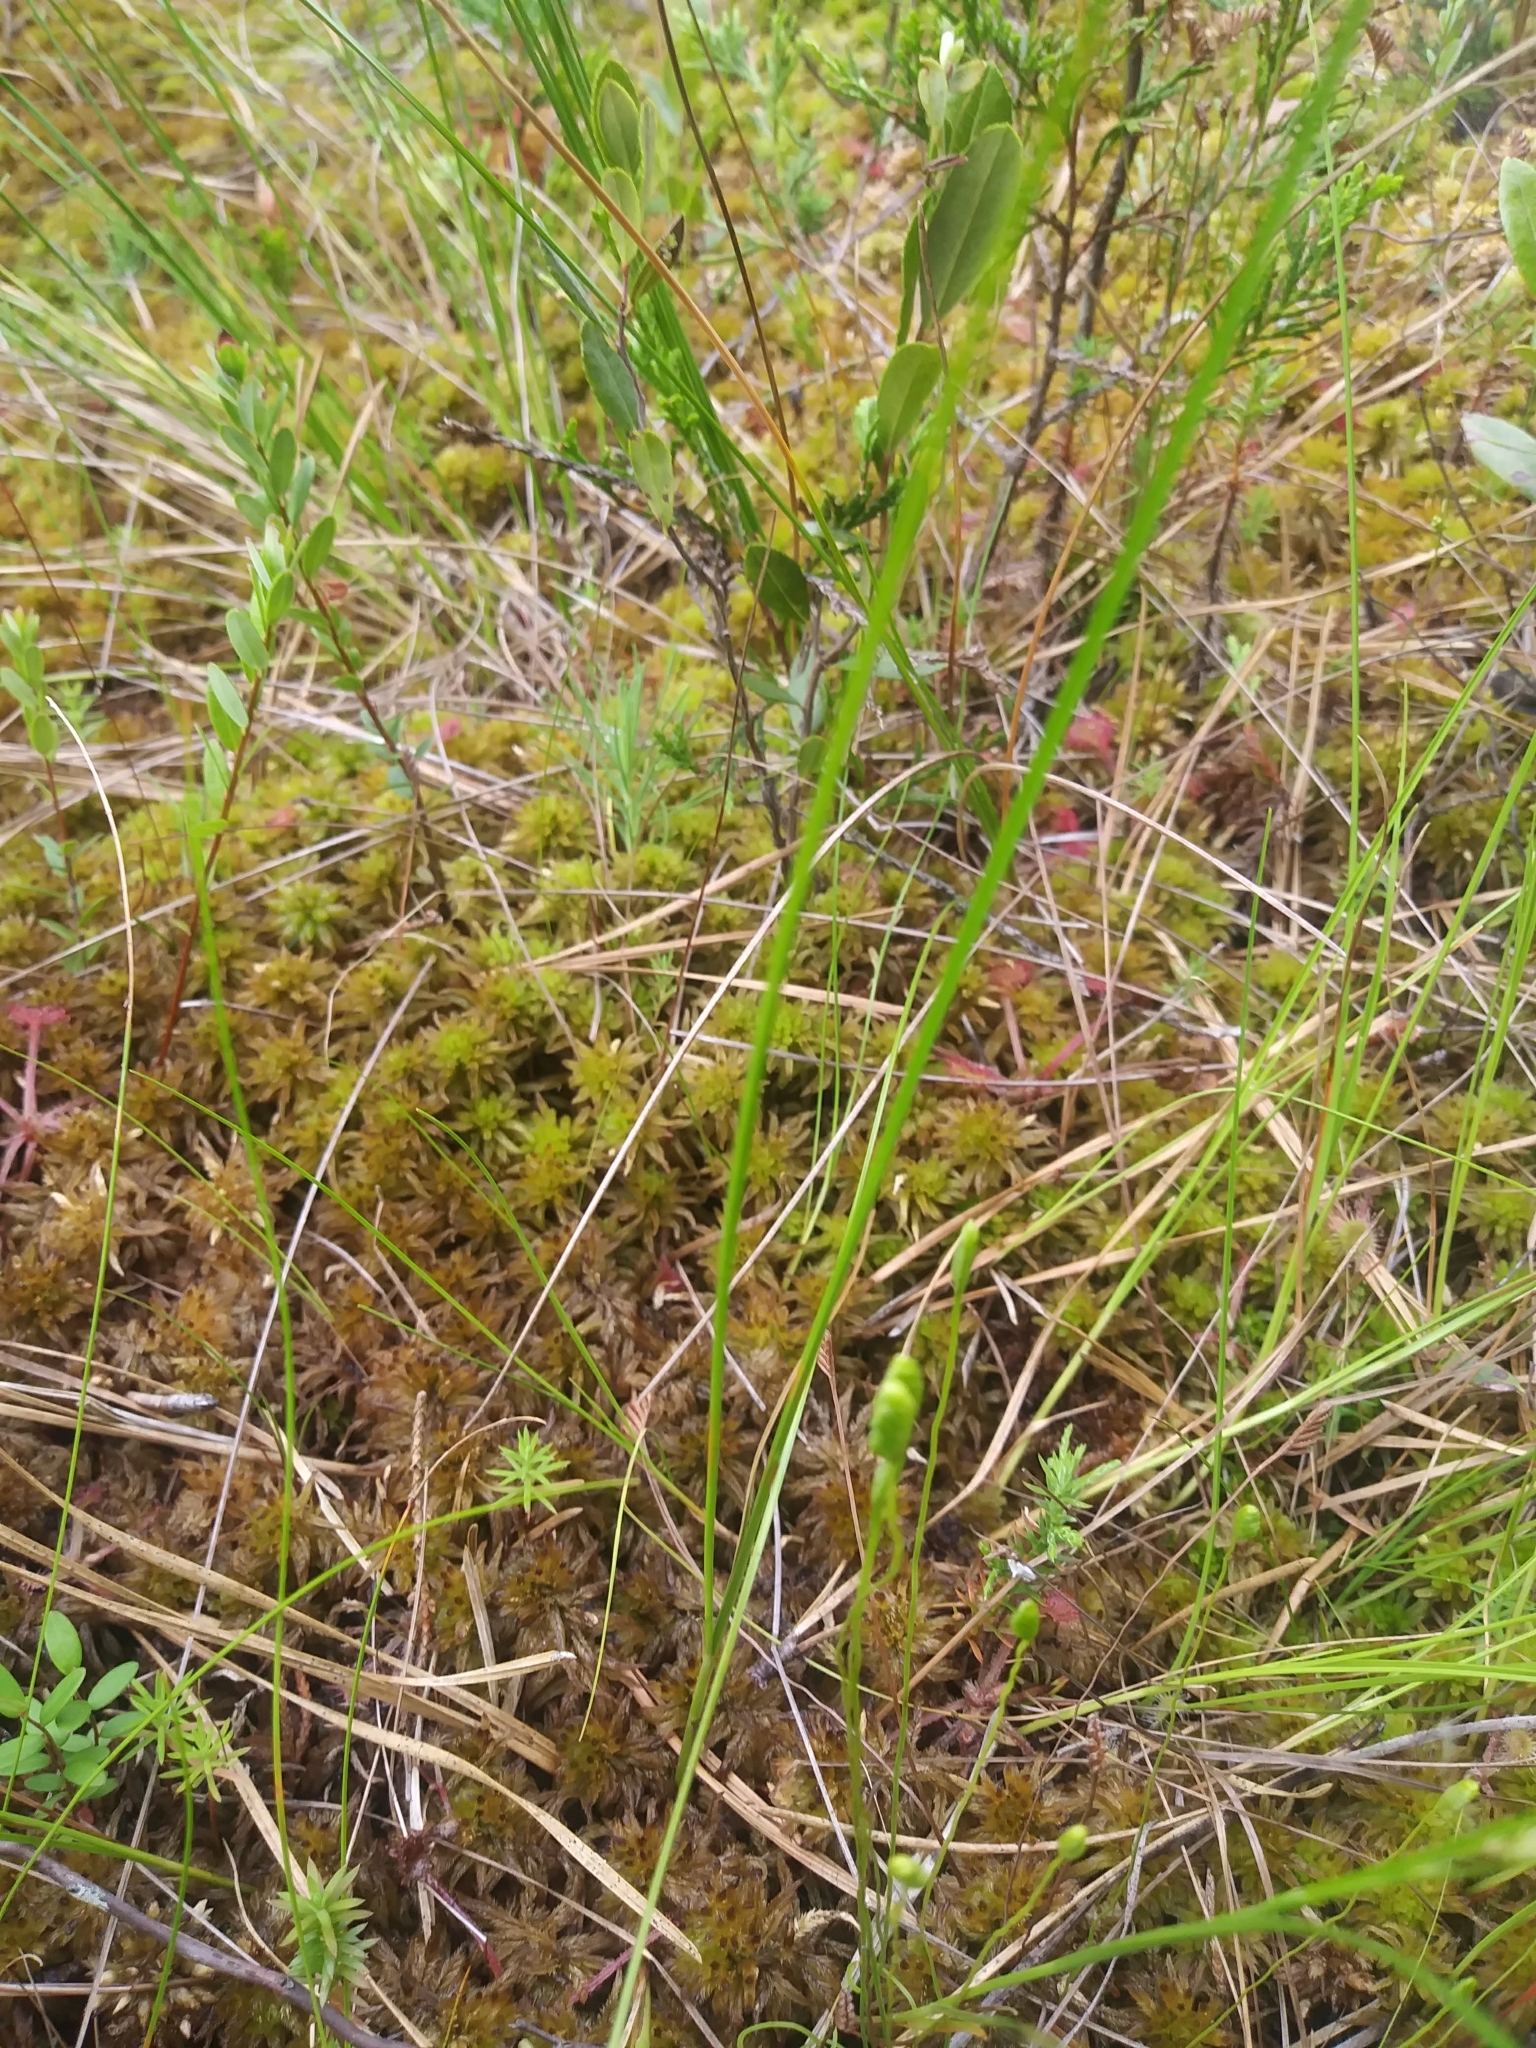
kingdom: Plantae
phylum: Tracheophyta
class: Polypodiopsida
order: Schizaeales
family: Schizaeaceae
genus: Schizaea
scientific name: Schizaea pusilla
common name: Curly-grass fern
